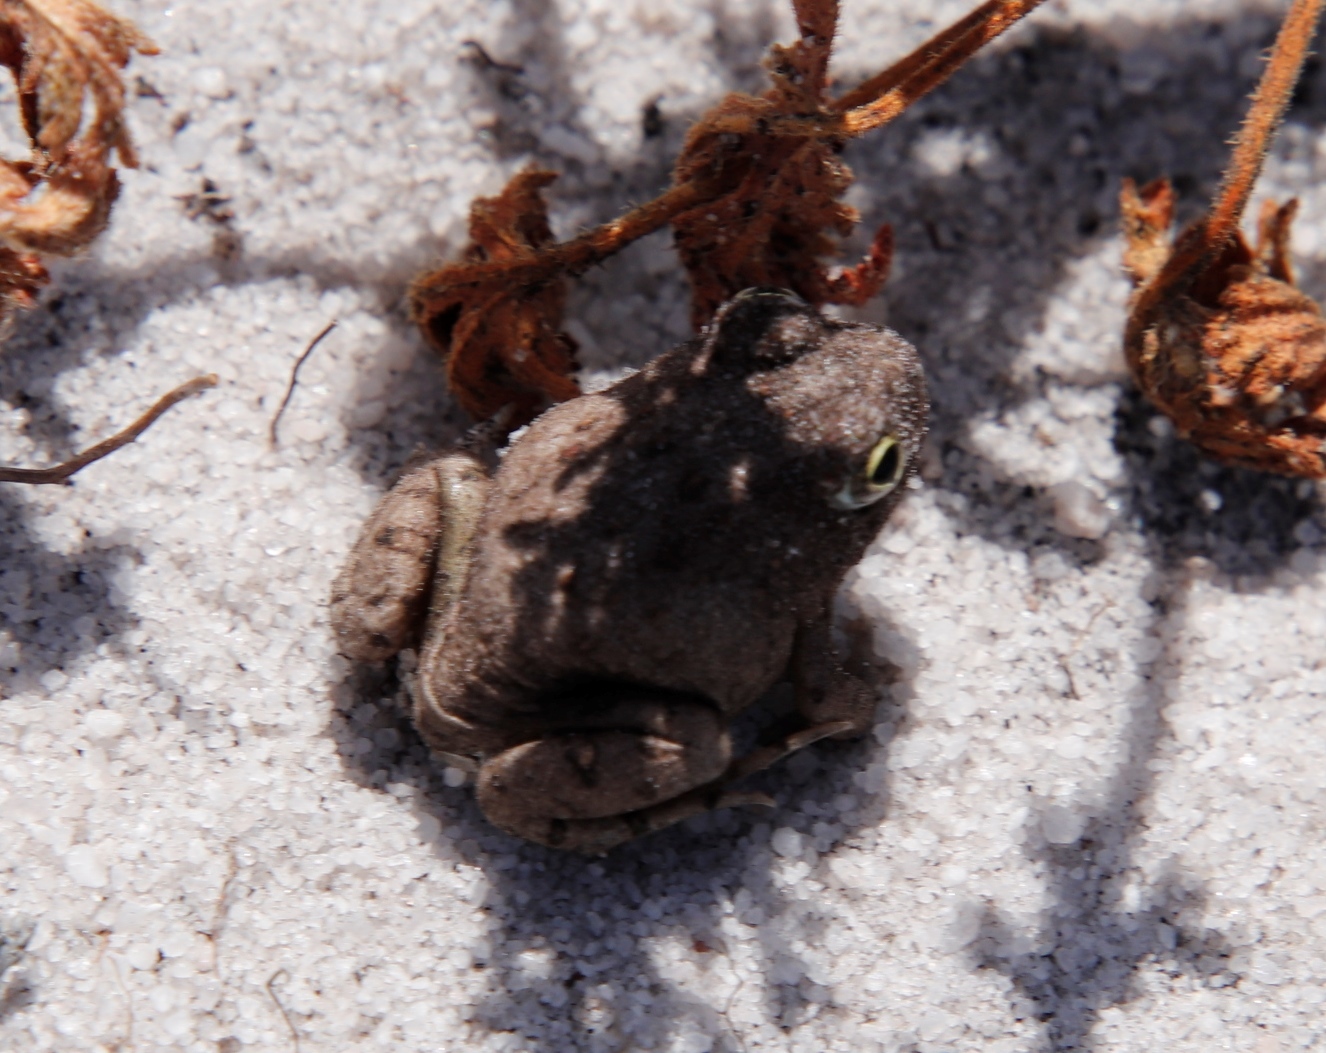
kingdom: Animalia
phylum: Chordata
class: Amphibia
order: Anura
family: Pyxicephalidae
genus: Tomopterna
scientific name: Tomopterna delalandii
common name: Delalande's burrowing bullfrog
